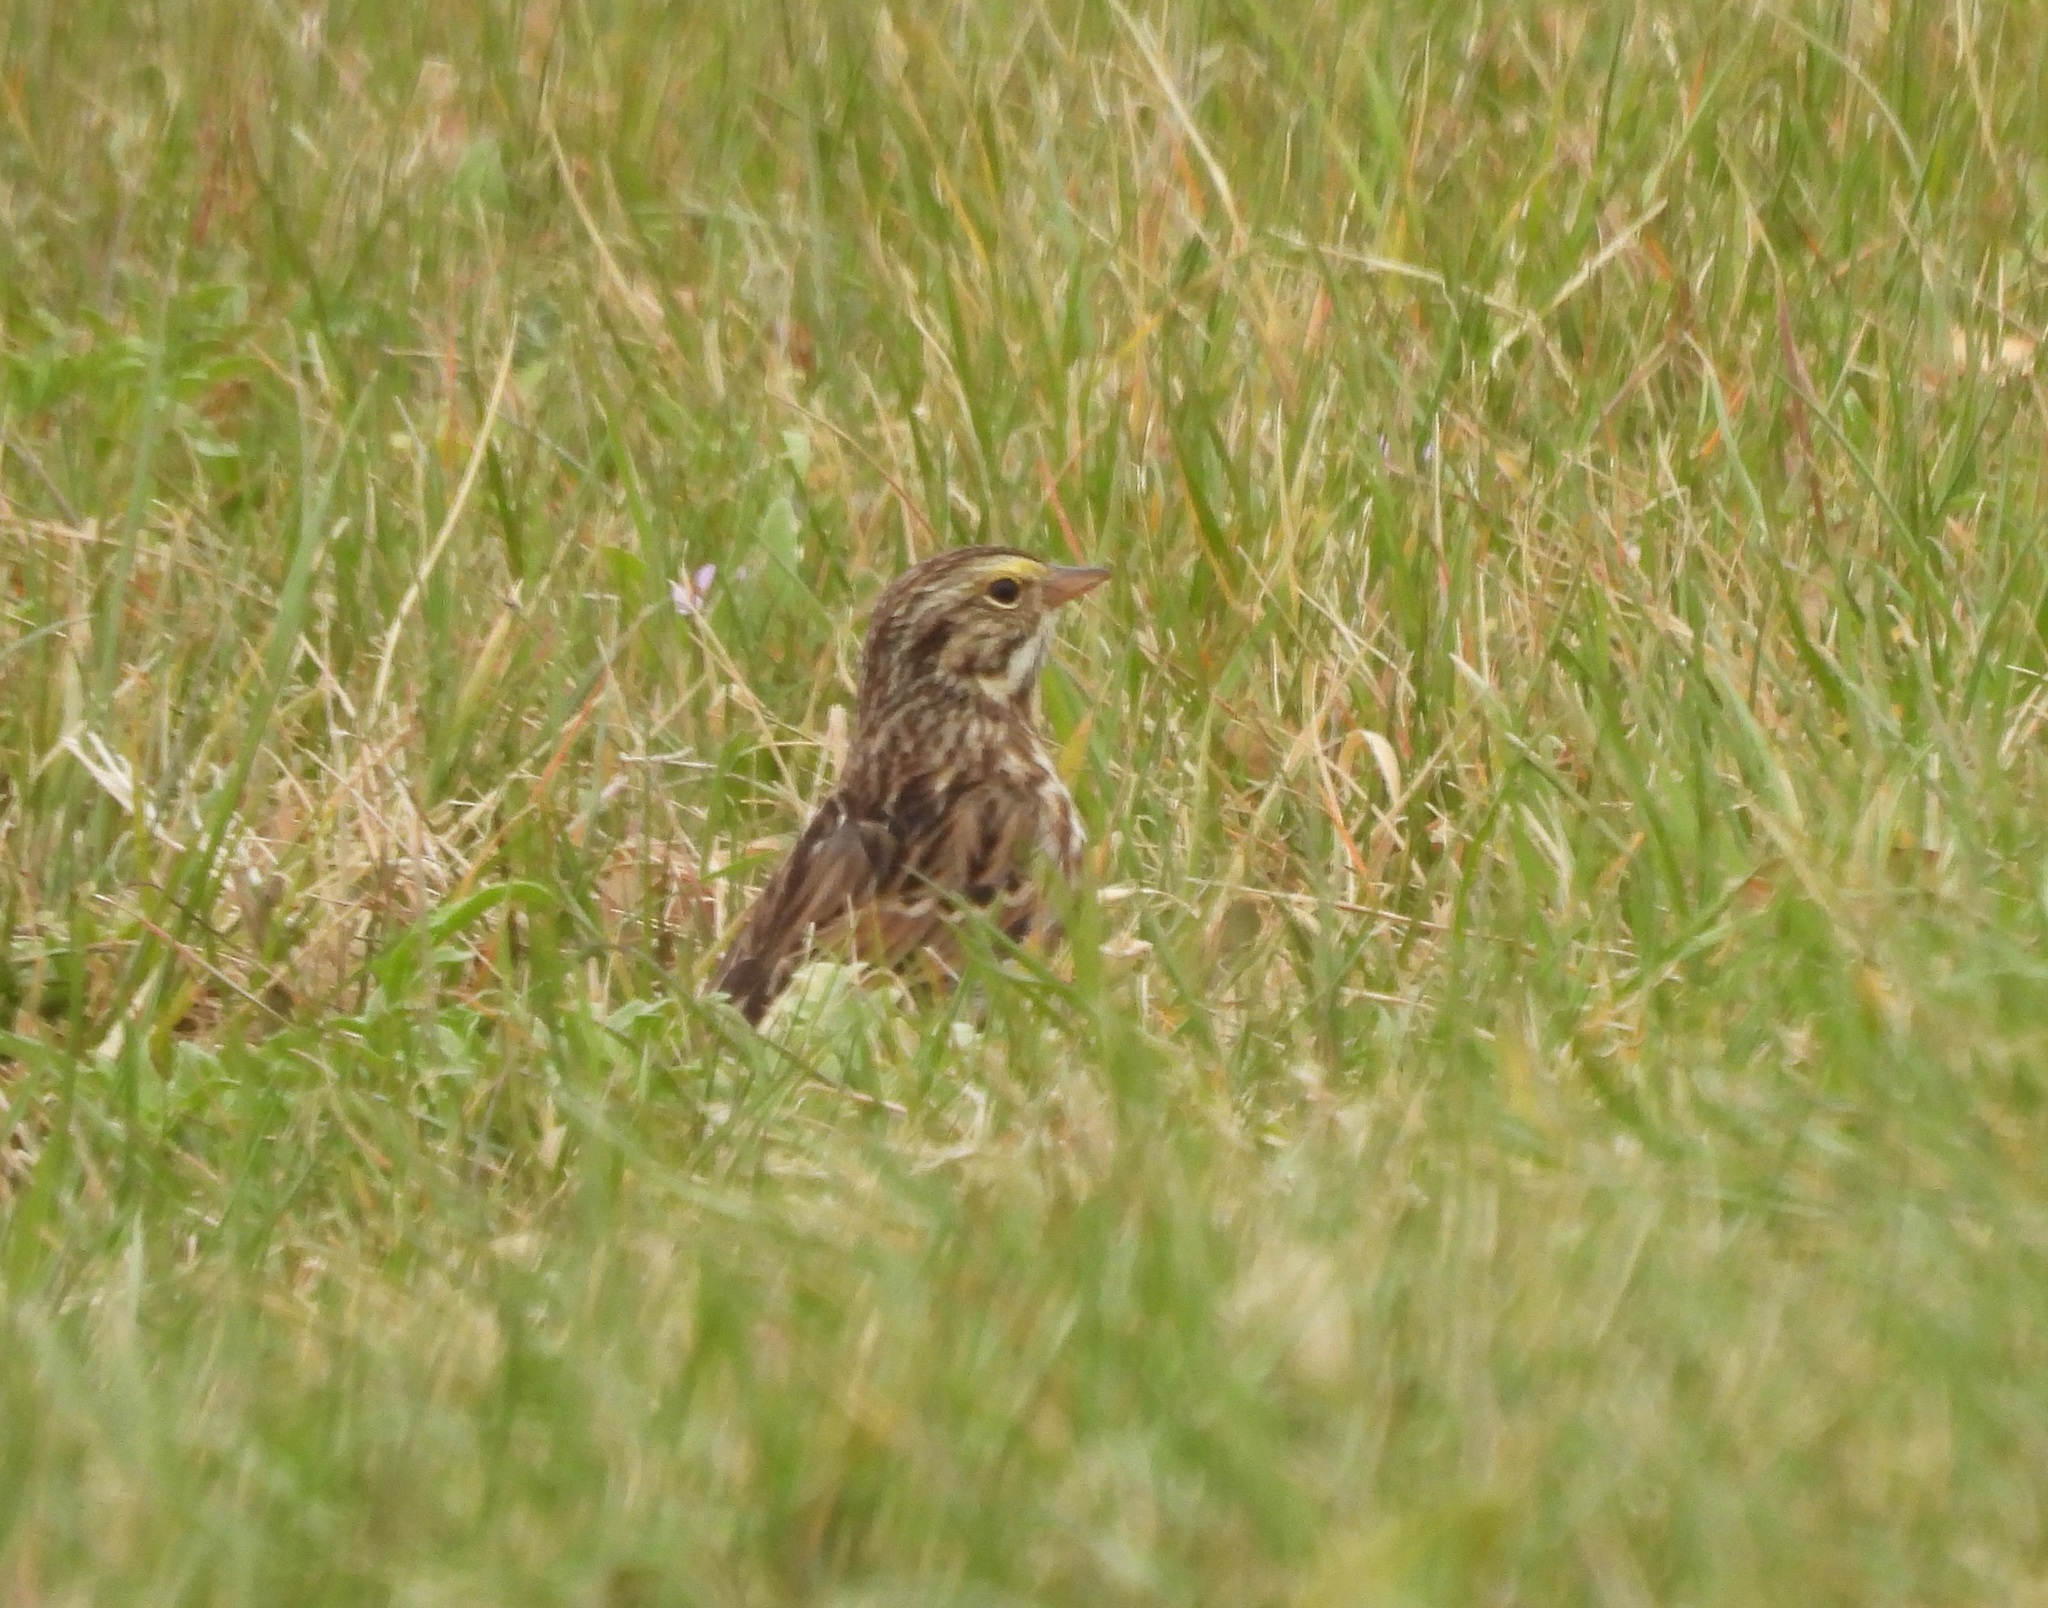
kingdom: Animalia
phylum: Chordata
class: Aves
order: Passeriformes
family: Passerellidae
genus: Passerculus
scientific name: Passerculus sandwichensis
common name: Savannah sparrow
